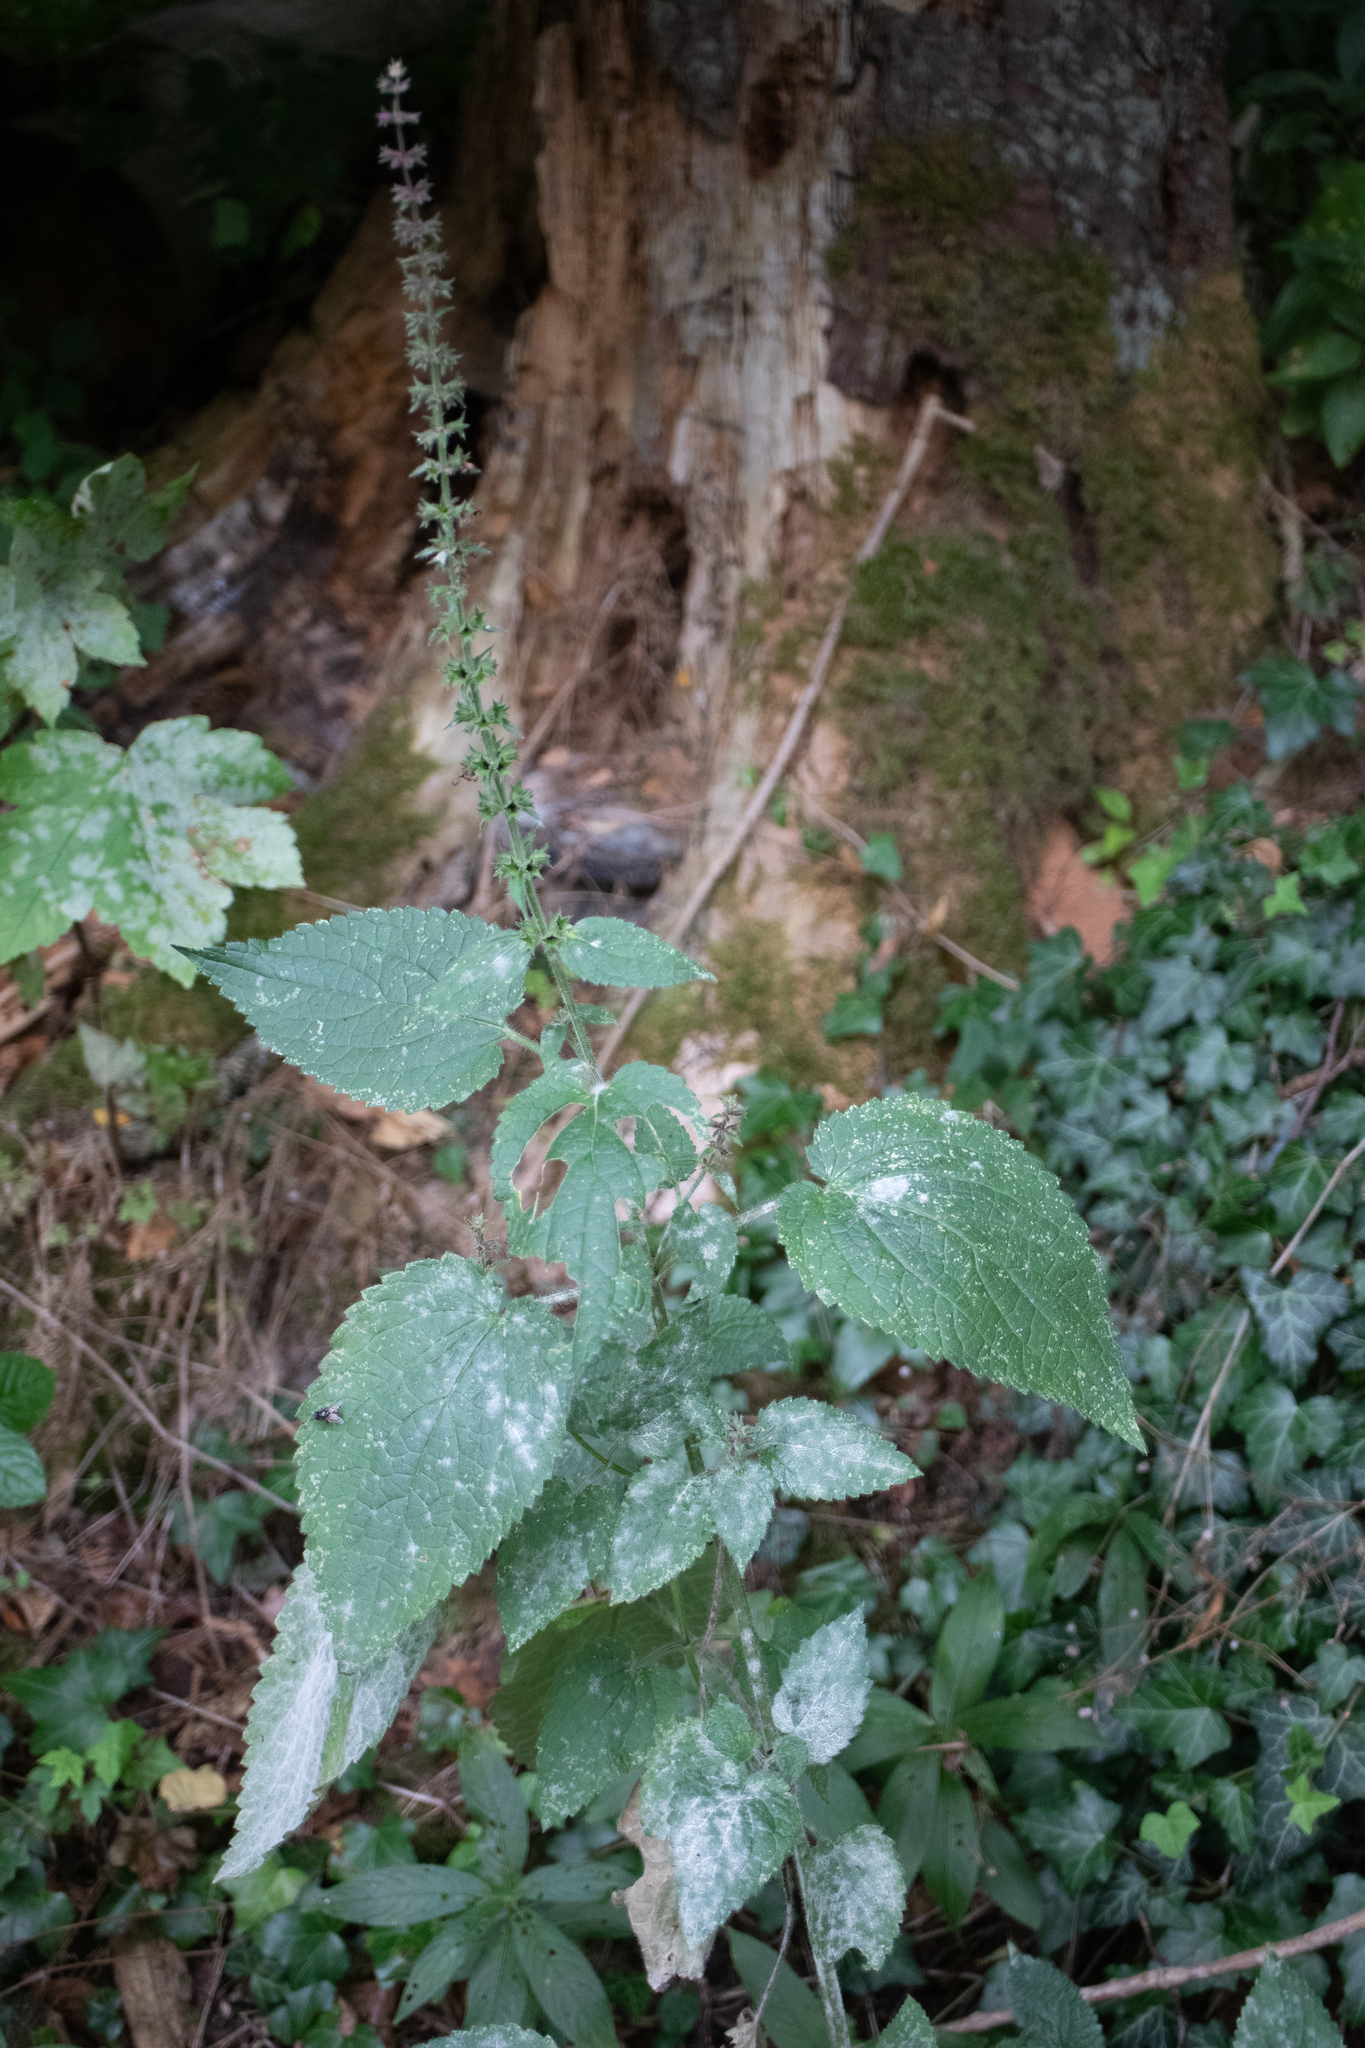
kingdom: Plantae
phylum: Tracheophyta
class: Magnoliopsida
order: Lamiales
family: Lamiaceae
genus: Stachys
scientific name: Stachys sylvatica
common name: Hedge woundwort
